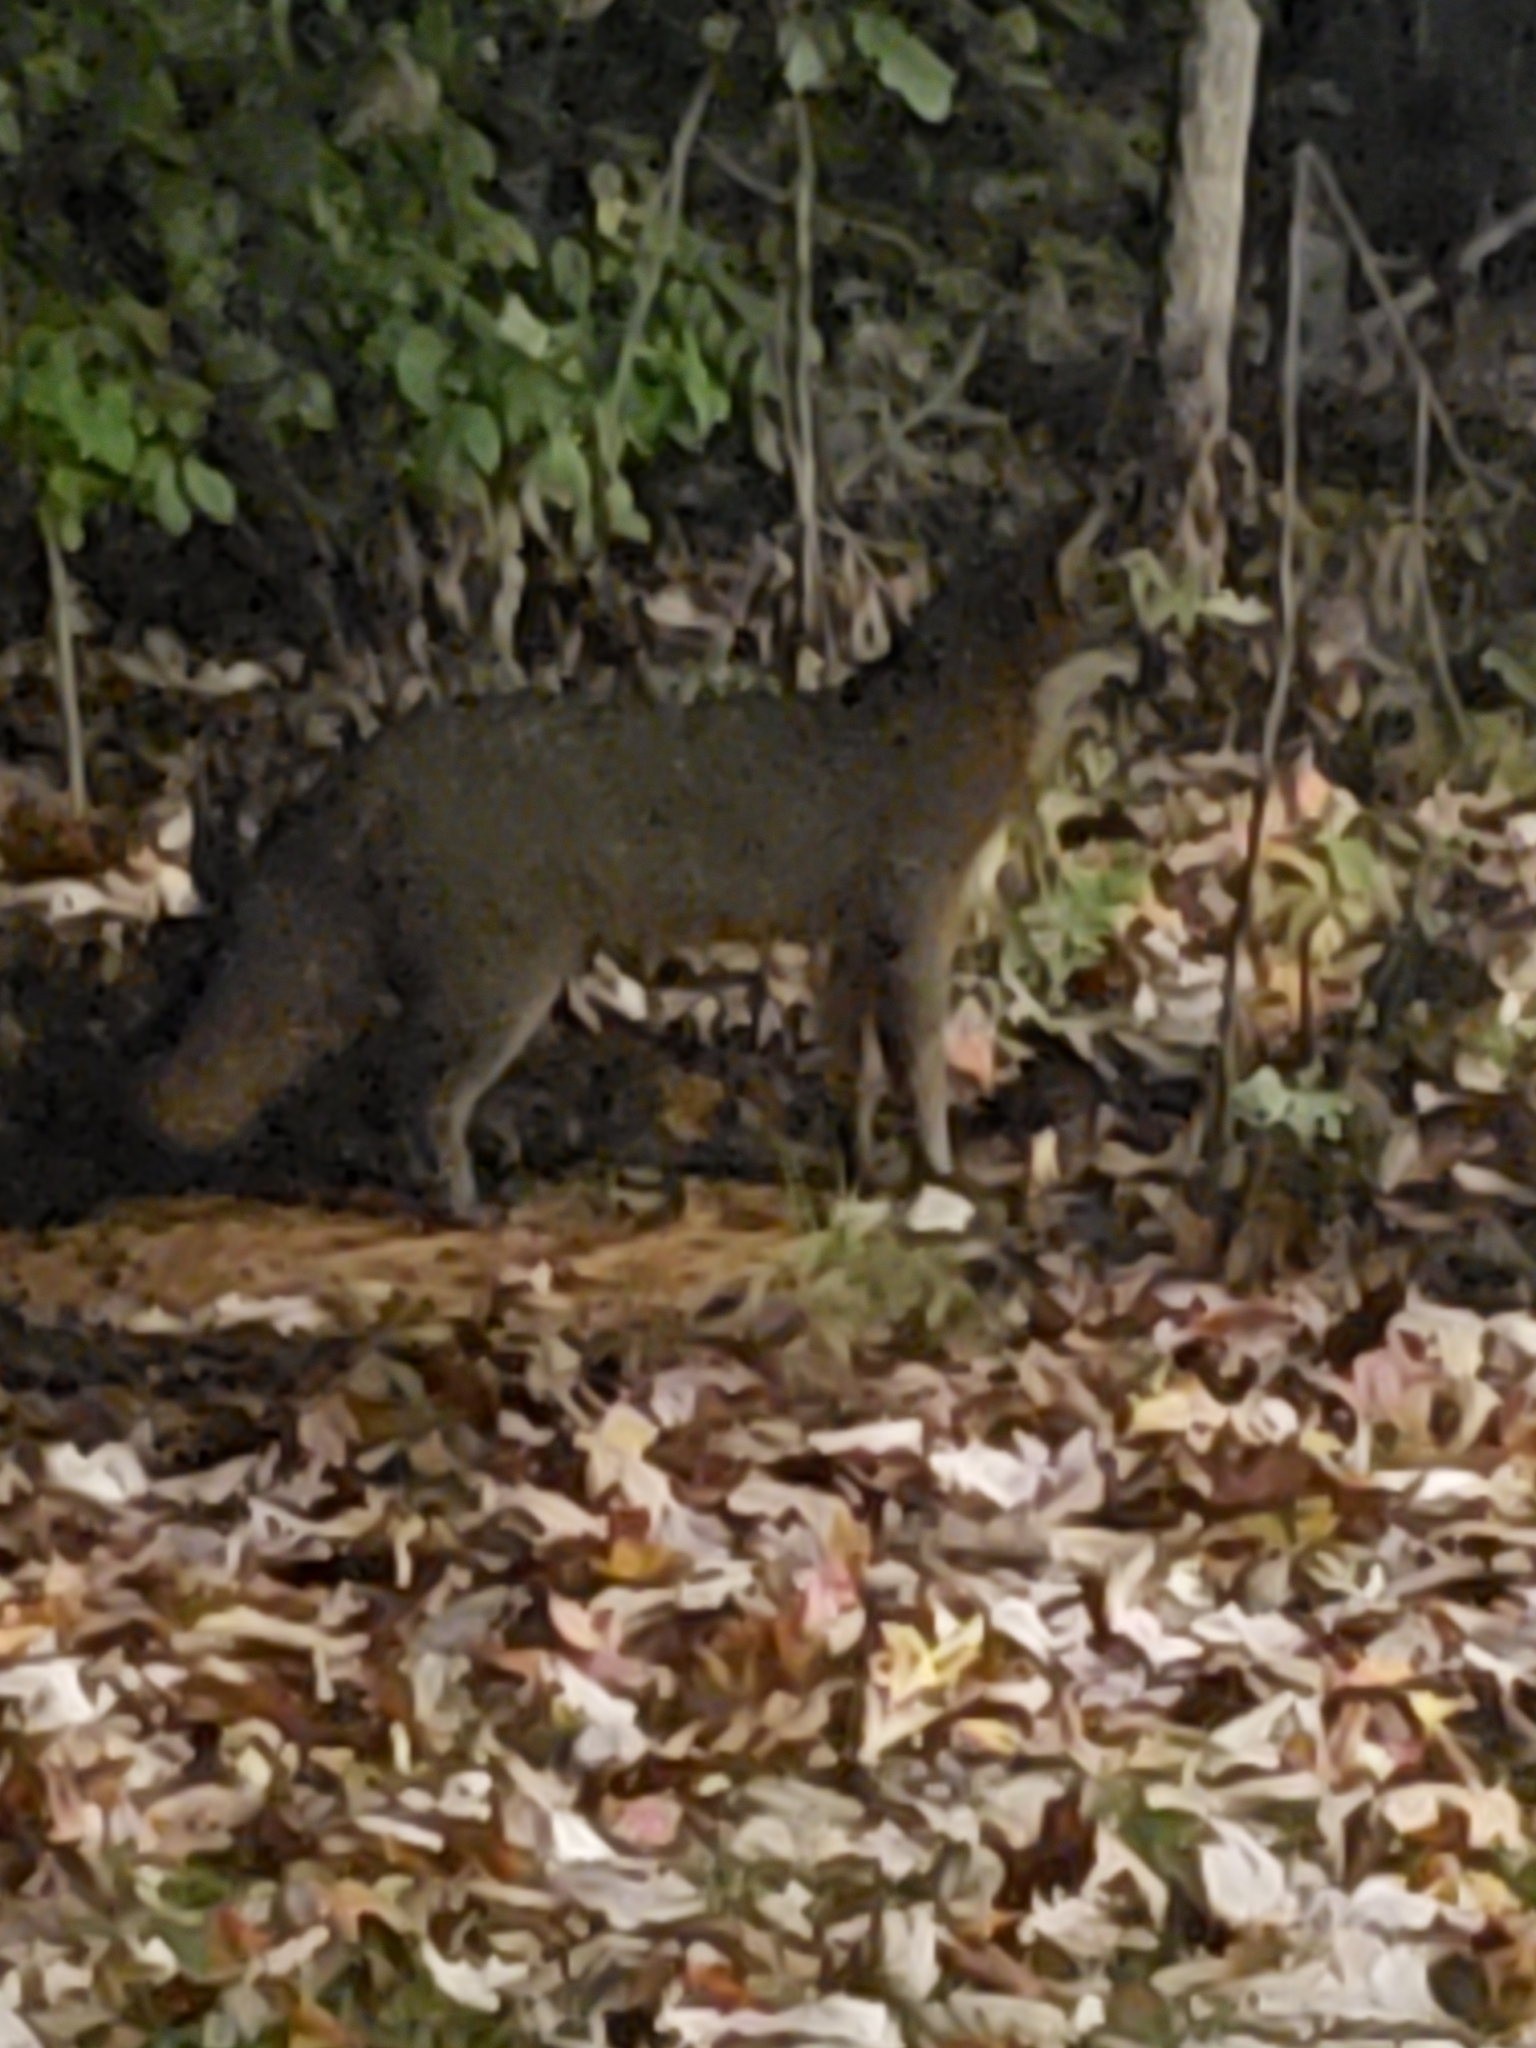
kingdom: Animalia
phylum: Chordata
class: Mammalia
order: Carnivora
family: Canidae
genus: Urocyon
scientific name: Urocyon cinereoargenteus
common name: Gray fox
